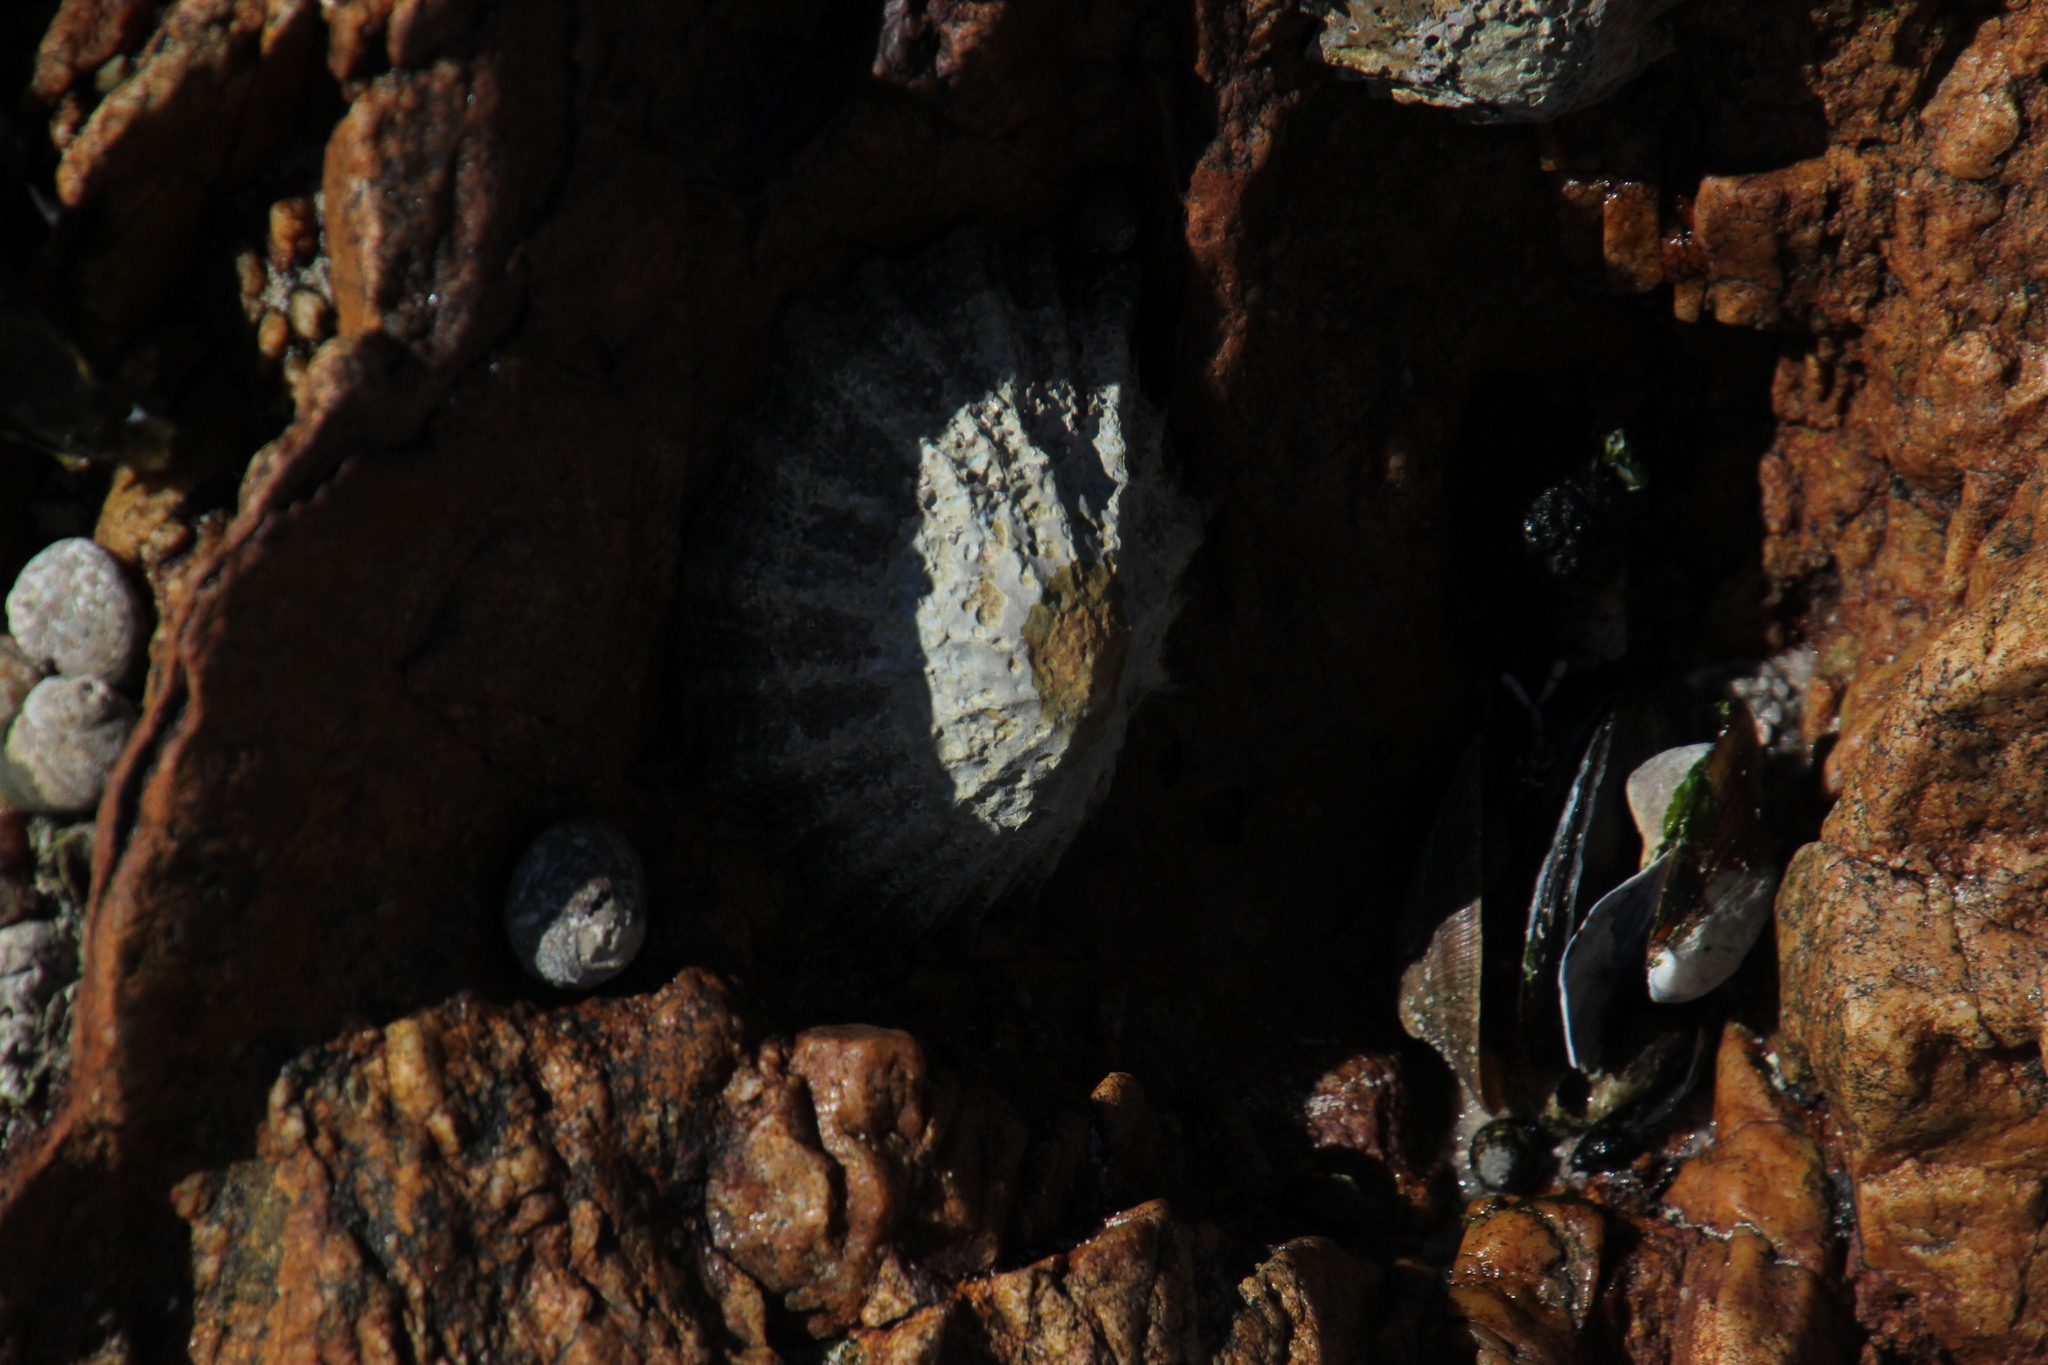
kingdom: Animalia
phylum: Mollusca
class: Gastropoda
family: Patellidae
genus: Cymbula
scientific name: Cymbula granatina
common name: Granite limpet
